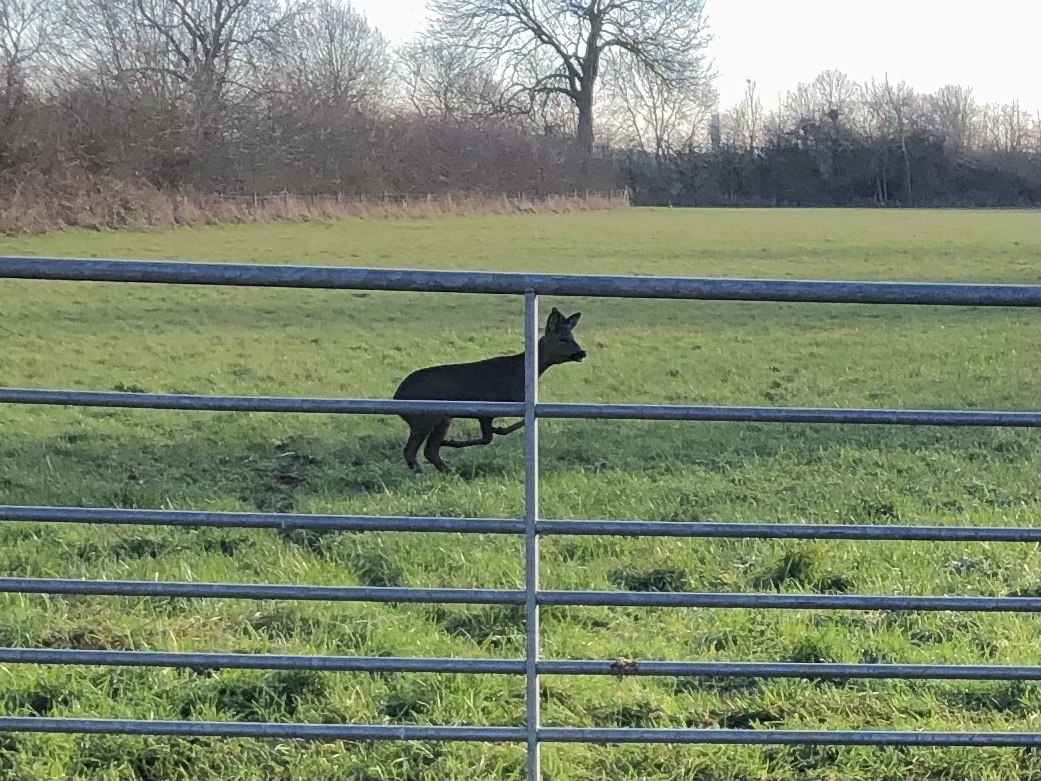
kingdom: Animalia
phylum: Chordata
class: Mammalia
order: Artiodactyla
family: Cervidae
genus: Capreolus
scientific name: Capreolus capreolus
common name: Western roe deer
